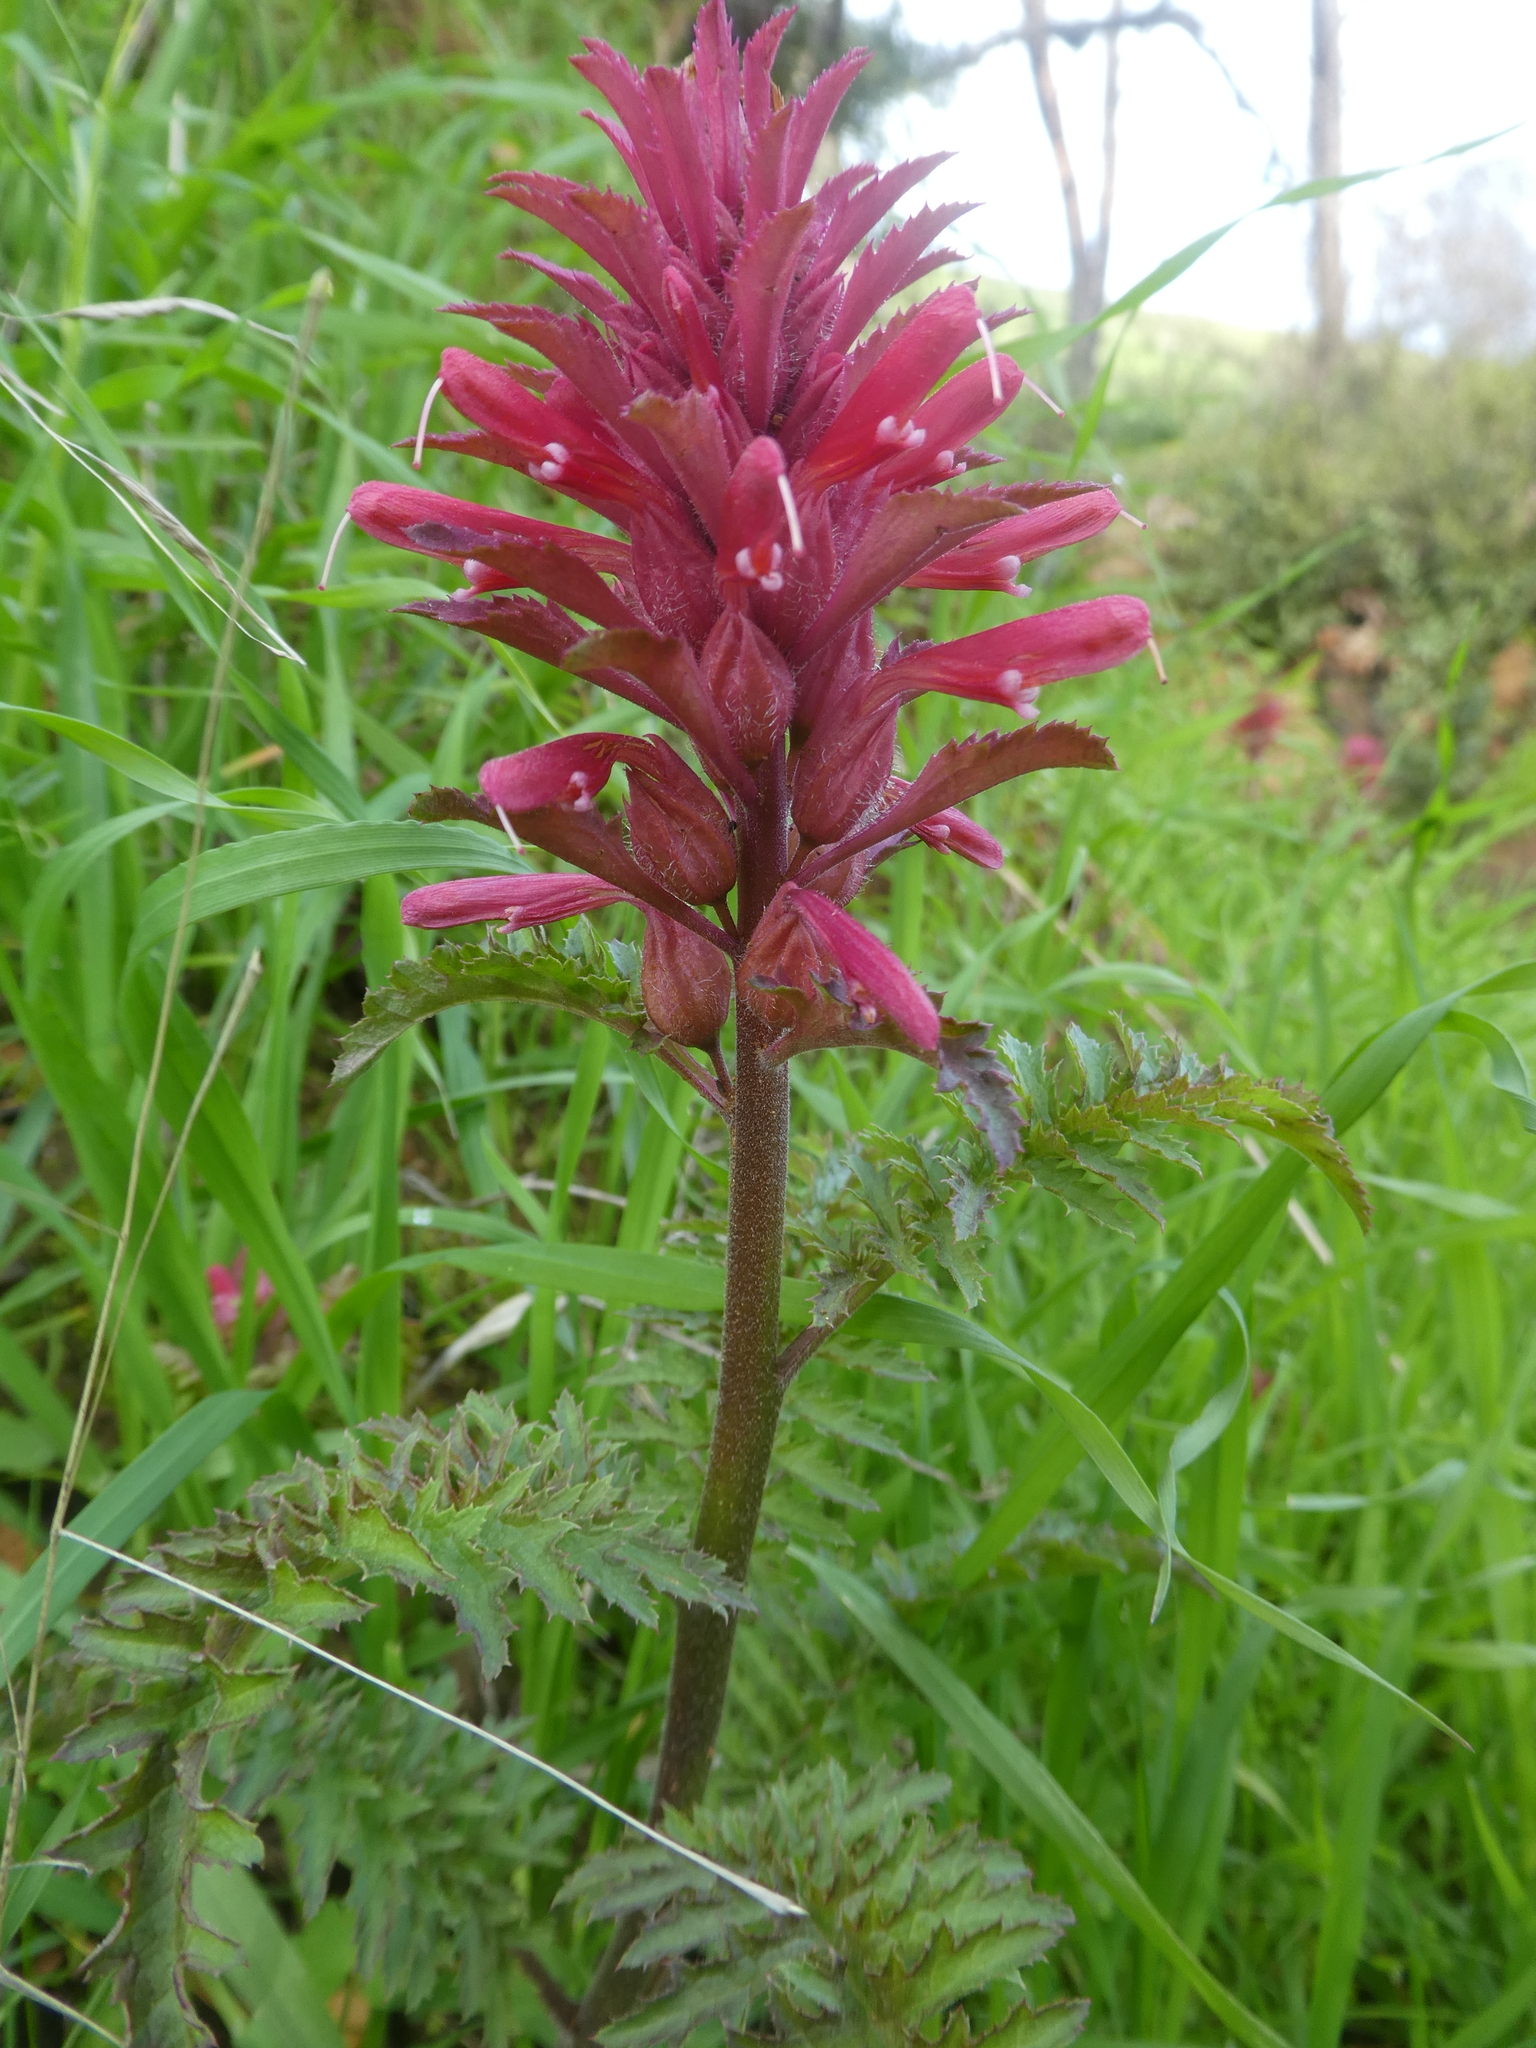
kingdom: Plantae
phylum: Tracheophyta
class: Magnoliopsida
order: Lamiales
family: Orobanchaceae
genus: Pedicularis
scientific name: Pedicularis densiflora
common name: Indian warrior
